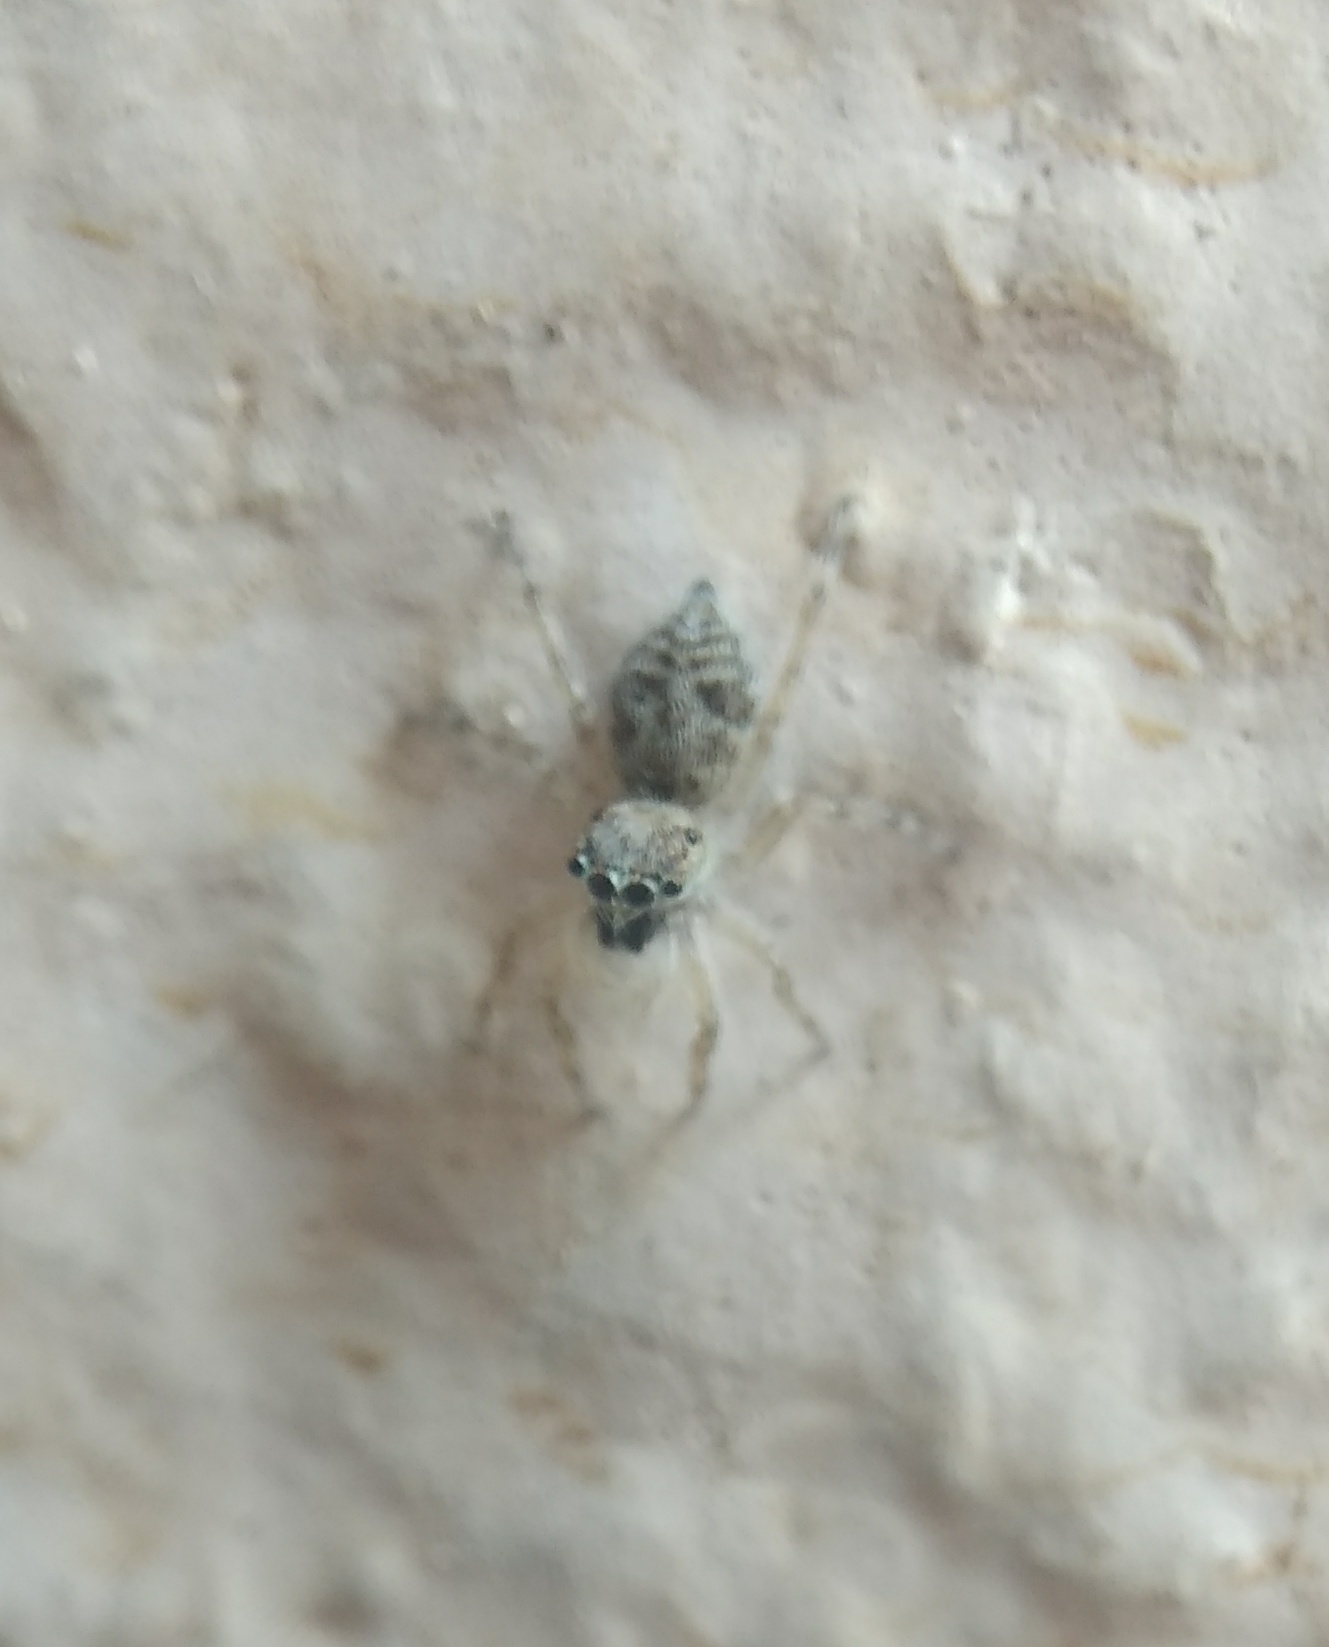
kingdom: Animalia
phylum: Arthropoda
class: Arachnida
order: Araneae
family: Salticidae
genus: Menemerus
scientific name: Menemerus bivittatus
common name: Gray wall jumper
